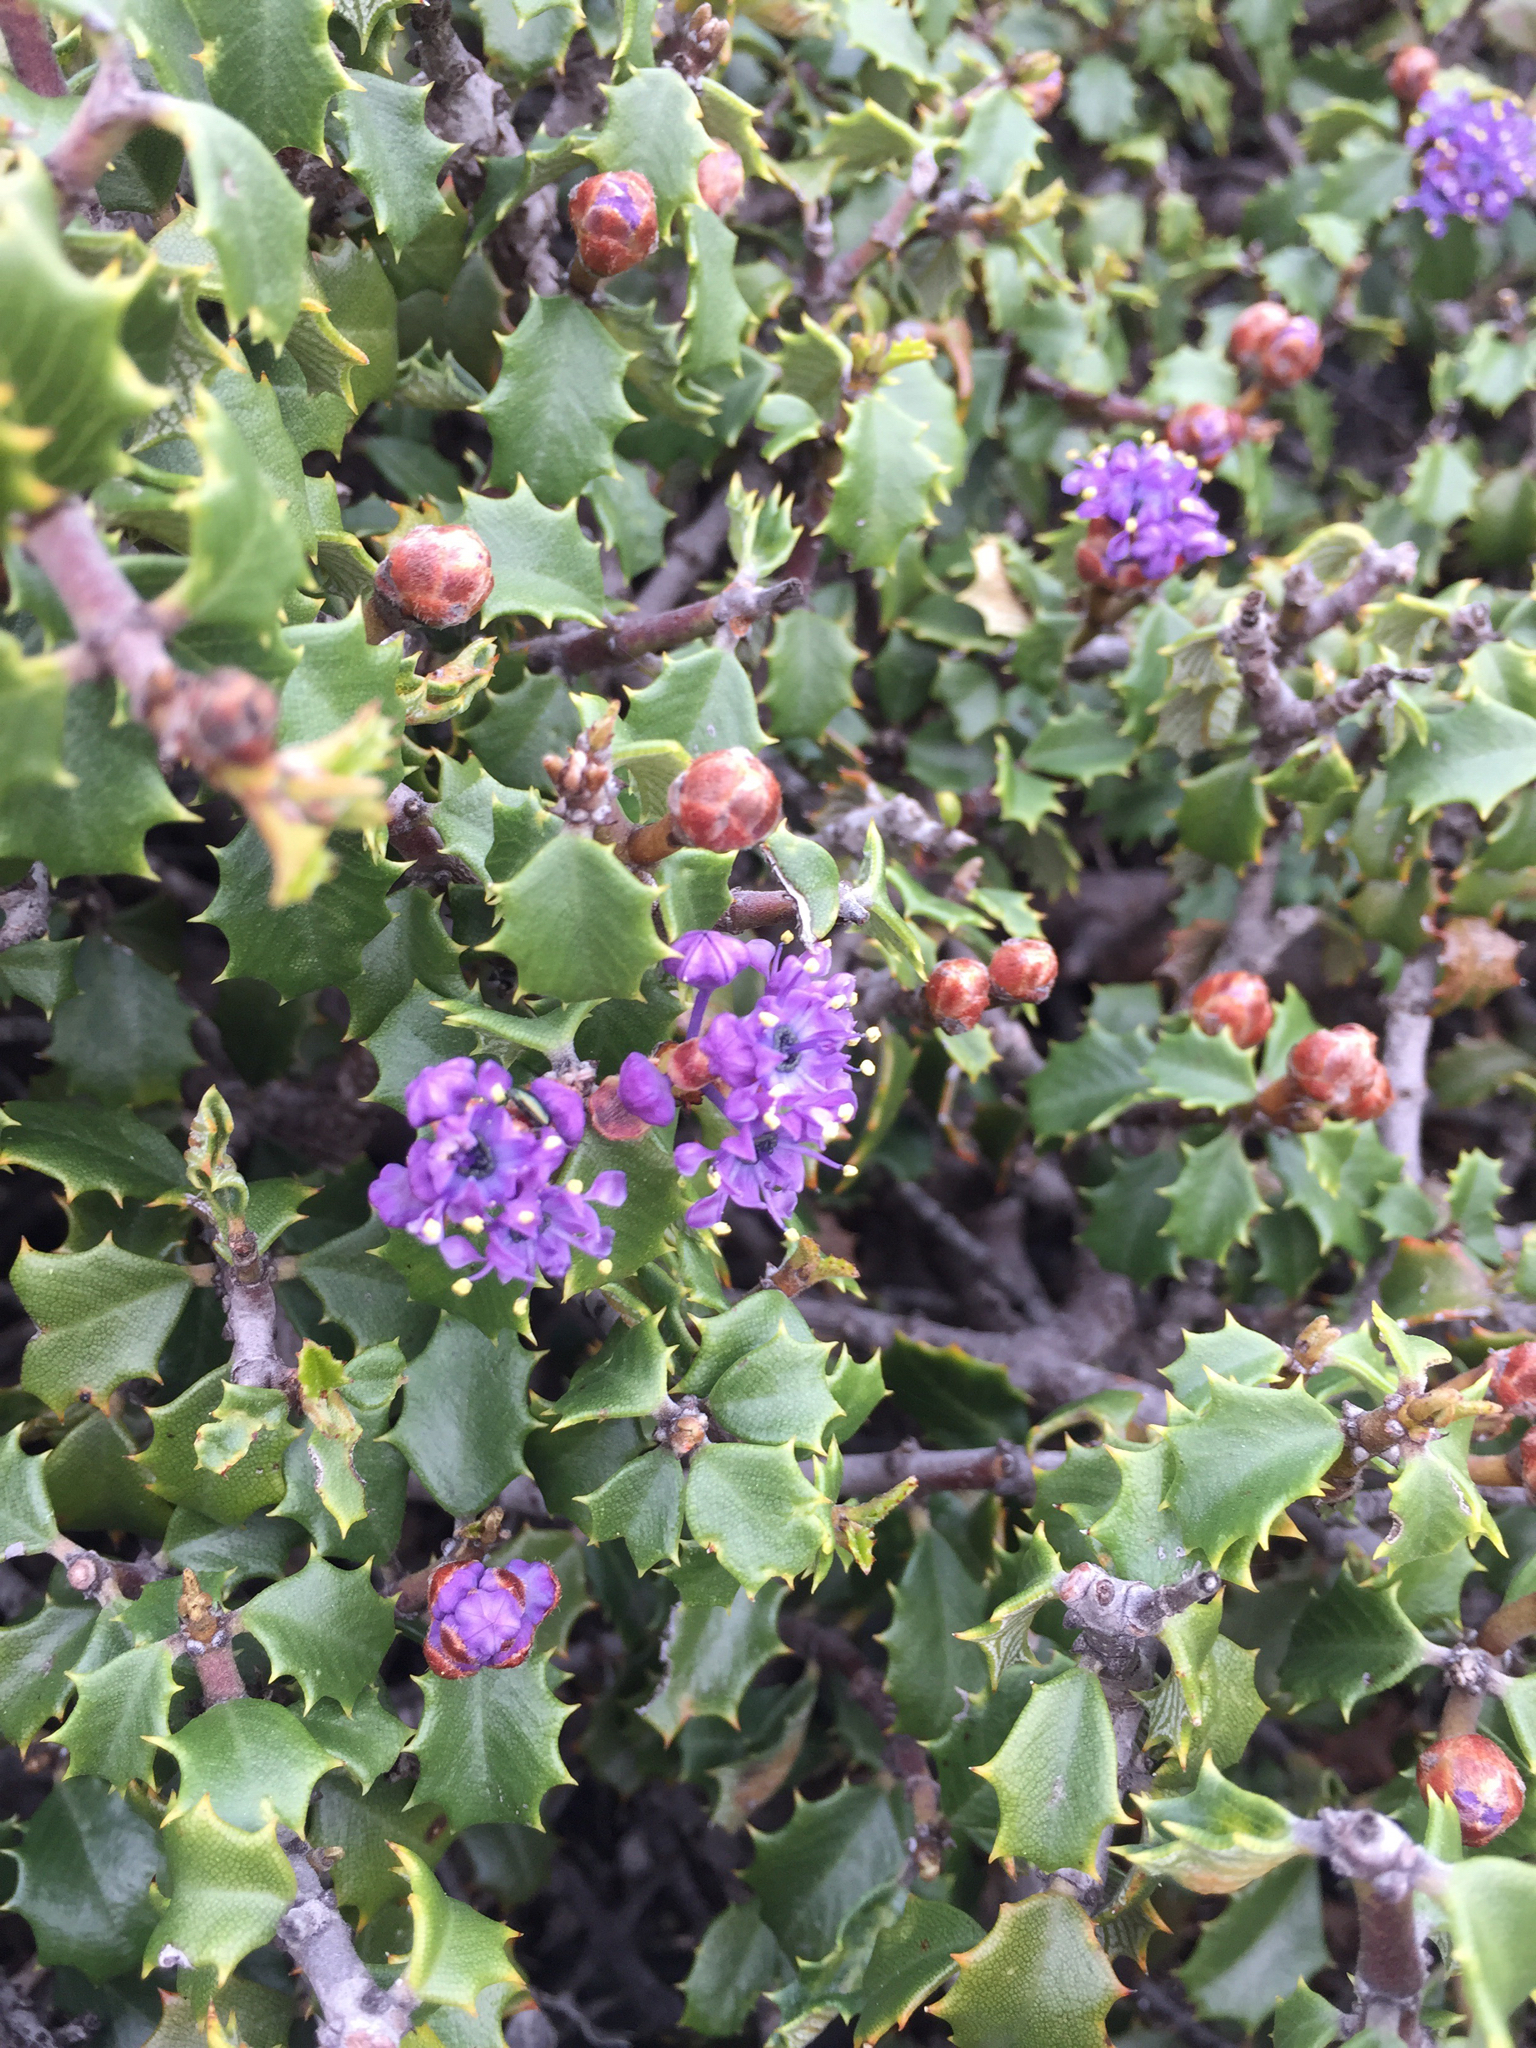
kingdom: Plantae
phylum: Tracheophyta
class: Magnoliopsida
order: Rosales
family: Rhamnaceae
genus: Ceanothus
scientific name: Ceanothus jepsonii
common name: Muskbrush
